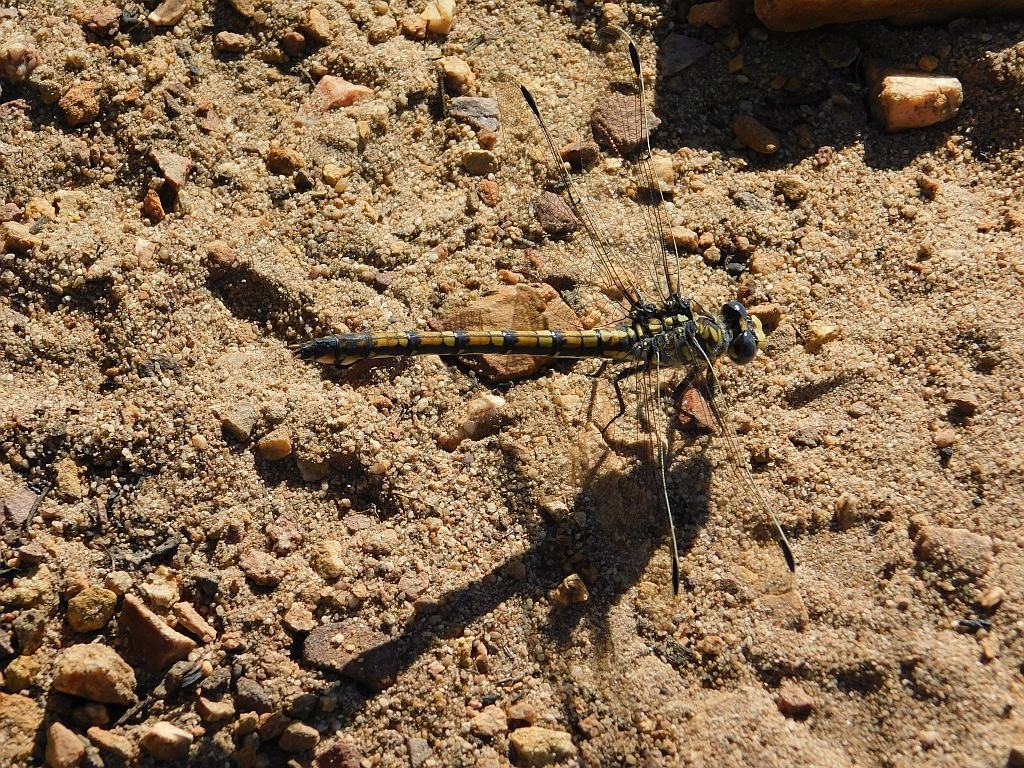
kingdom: Animalia
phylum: Arthropoda
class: Insecta
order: Odonata
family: Gomphidae
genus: Ceratogomphus
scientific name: Ceratogomphus triceraticus
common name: Cape thorntail
